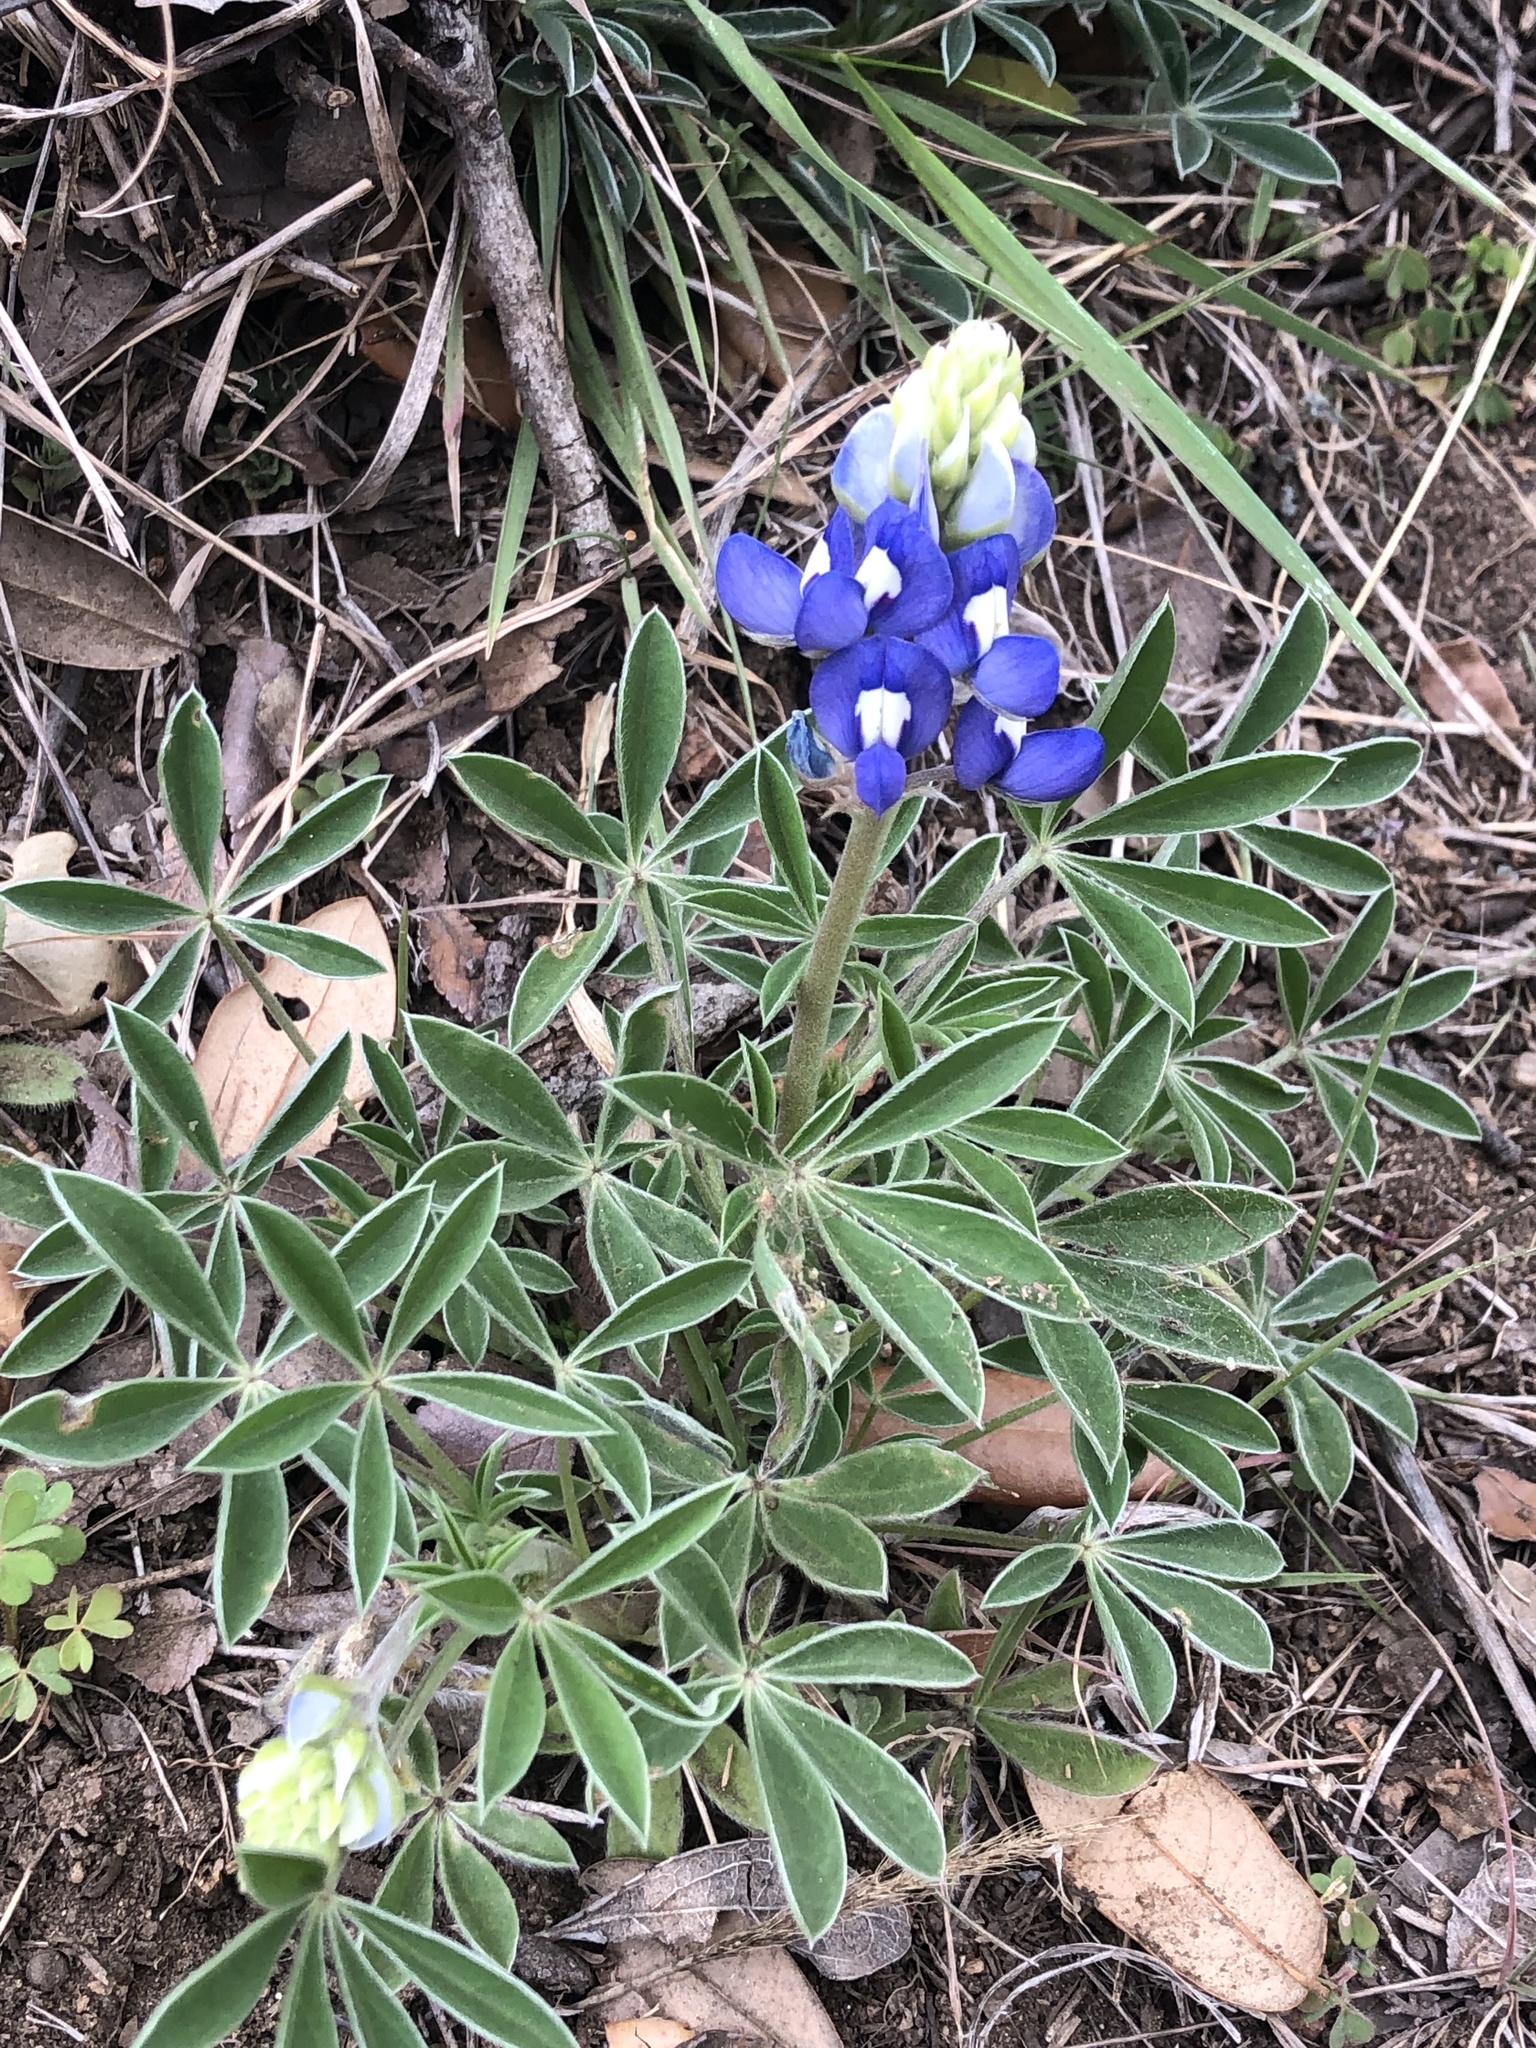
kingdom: Plantae
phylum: Tracheophyta
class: Magnoliopsida
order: Fabales
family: Fabaceae
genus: Lupinus
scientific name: Lupinus texensis
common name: Texas bluebonnet
